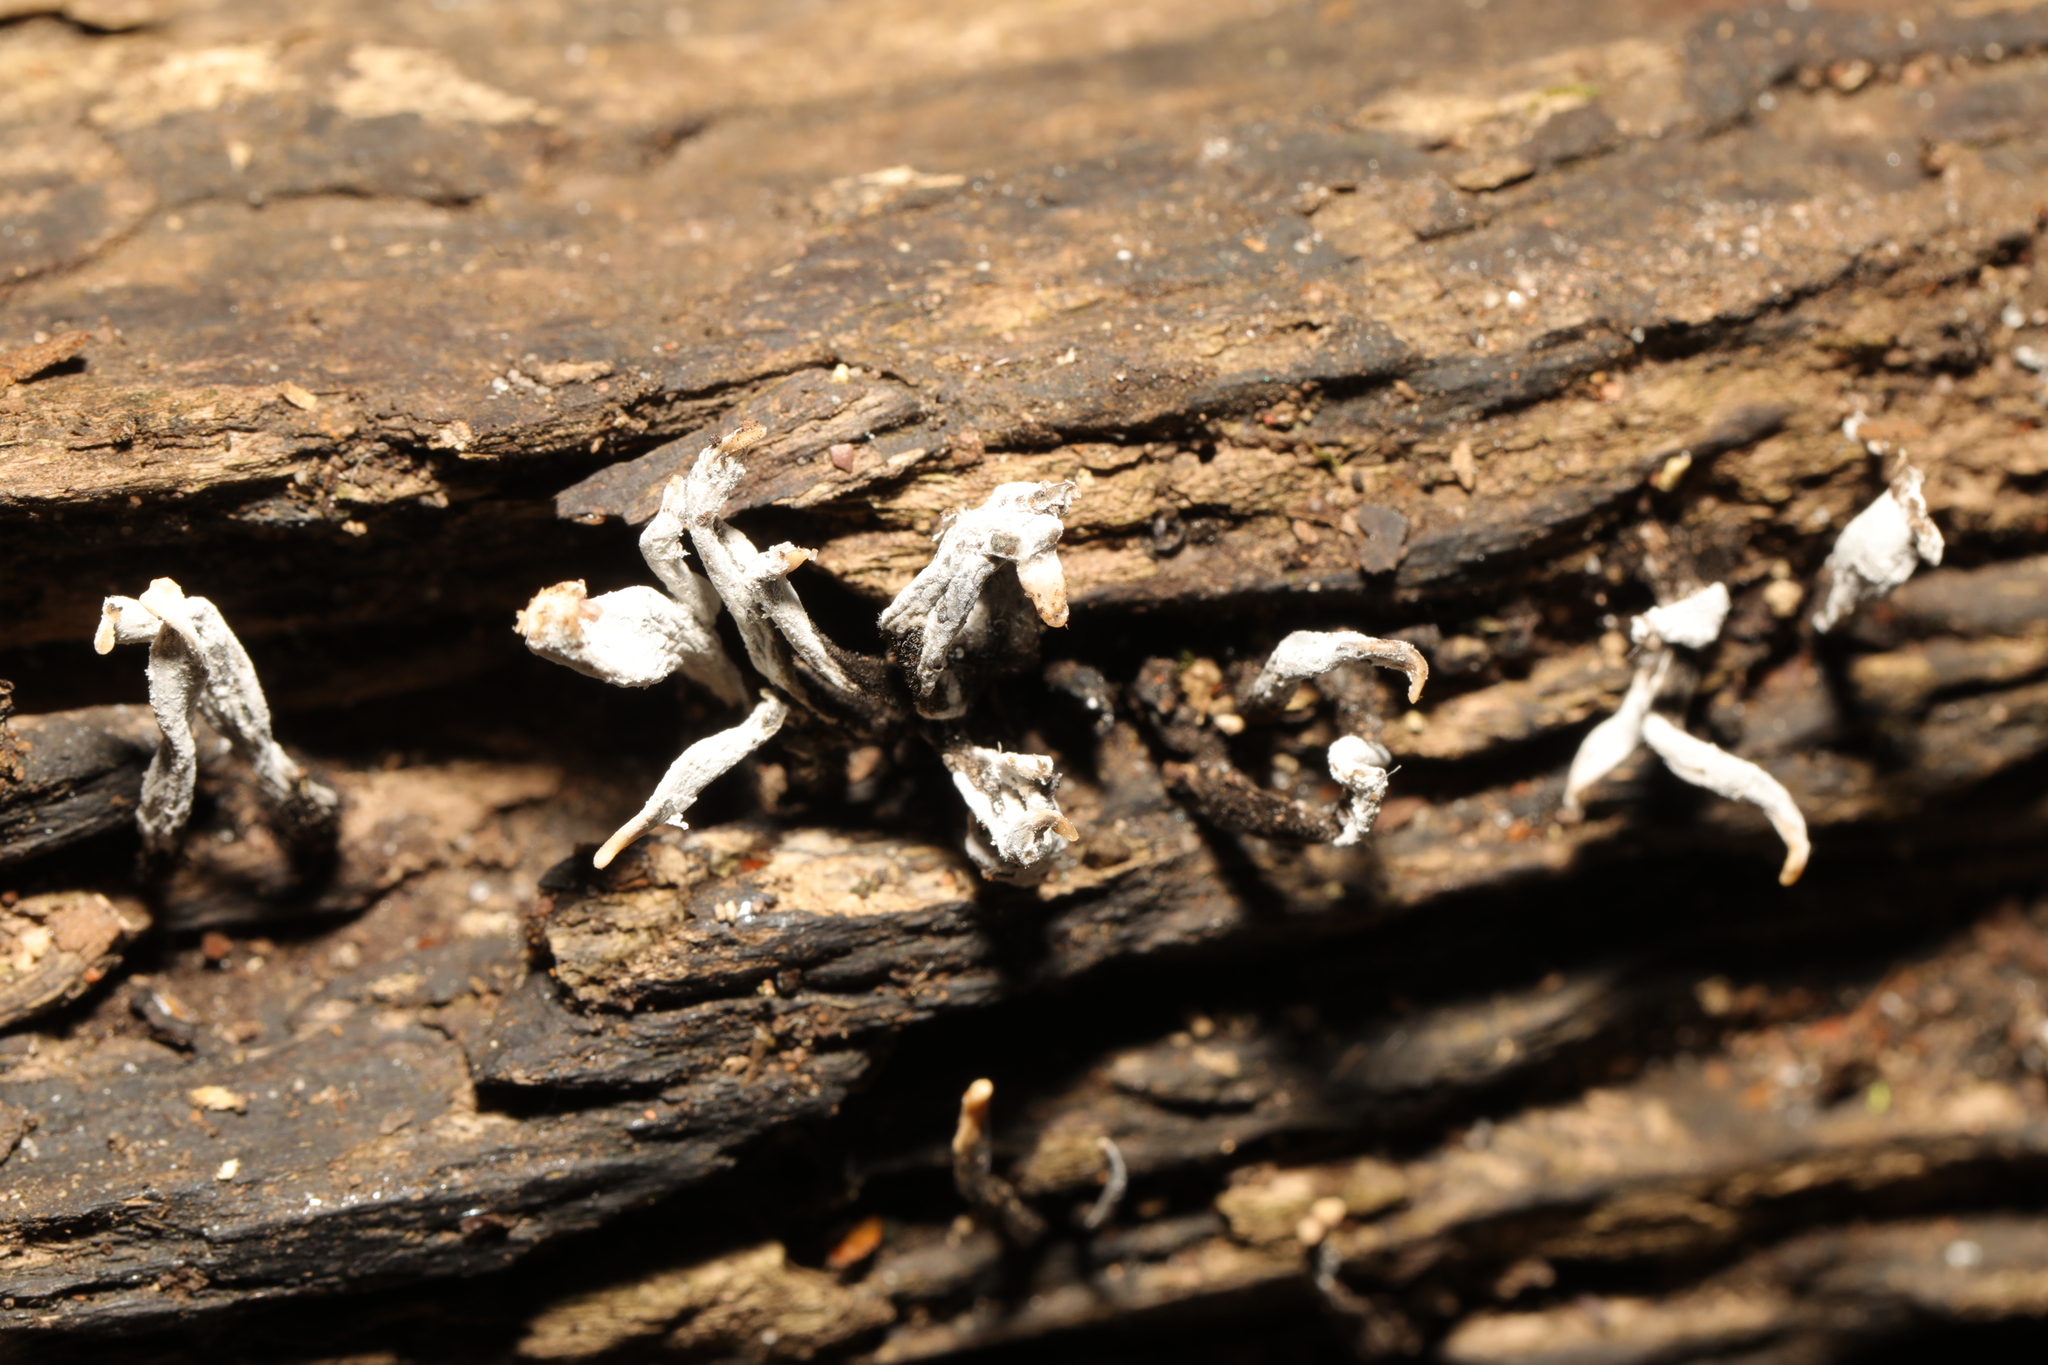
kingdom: Fungi
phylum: Ascomycota
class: Sordariomycetes
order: Xylariales
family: Xylariaceae
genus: Xylaria
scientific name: Xylaria hypoxylon
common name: Candle-snuff fungus
